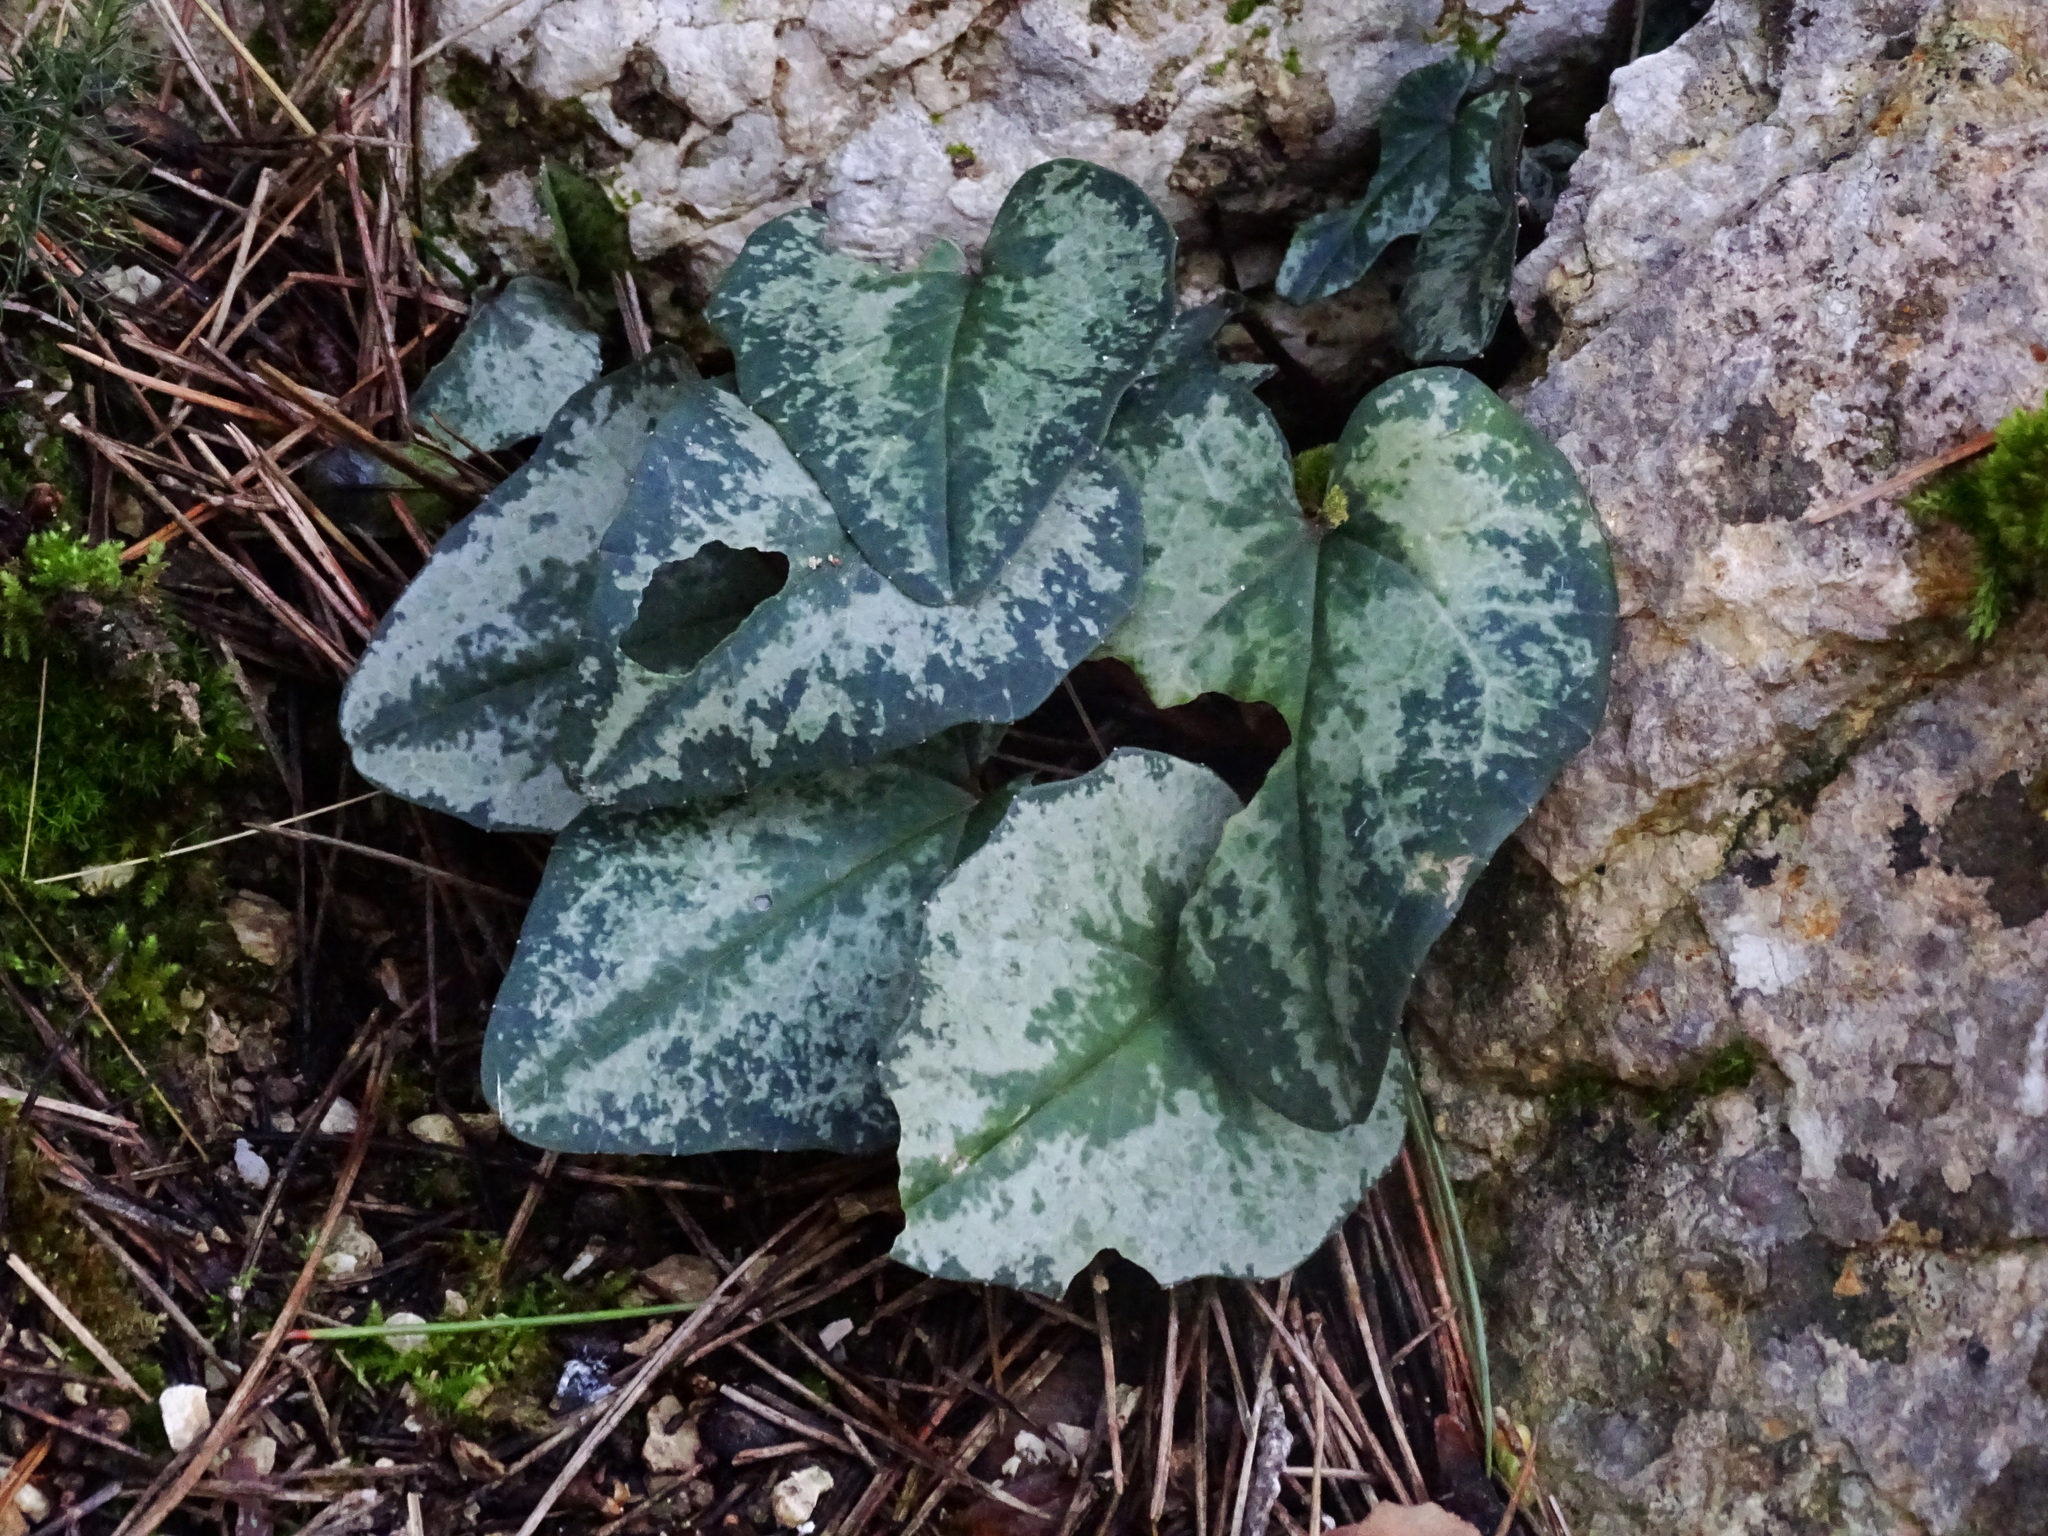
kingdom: Plantae
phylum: Tracheophyta
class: Magnoliopsida
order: Ericales
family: Primulaceae
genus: Cyclamen
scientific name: Cyclamen balearicum
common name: Majorca cyclamen
